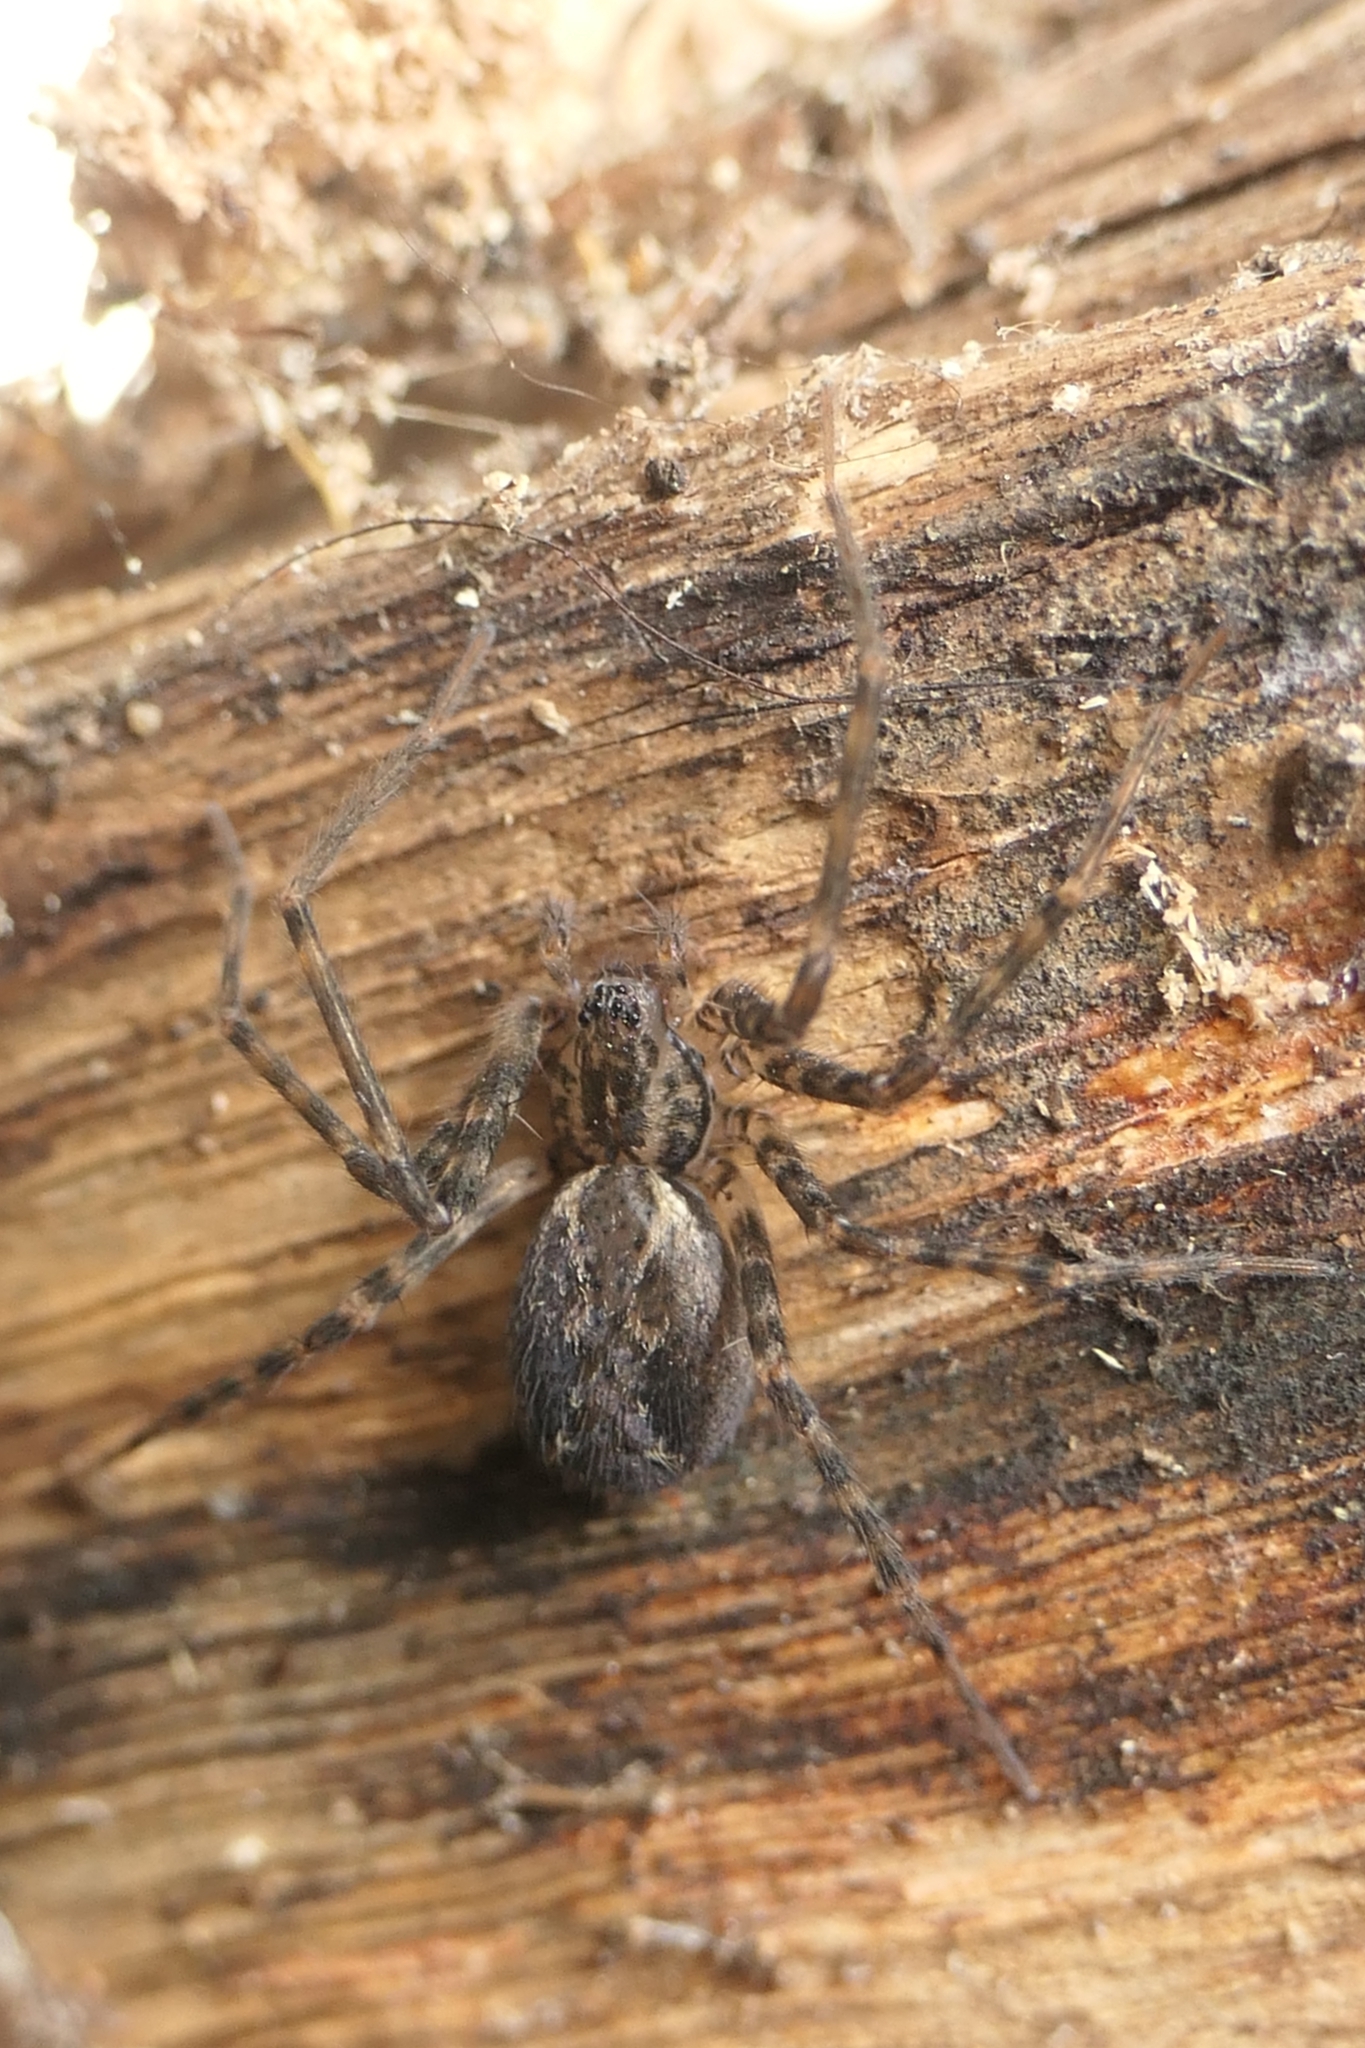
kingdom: Animalia
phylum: Arthropoda
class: Arachnida
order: Araneae
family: Stiphidiidae
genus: Stiphidion
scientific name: Stiphidion facetum
